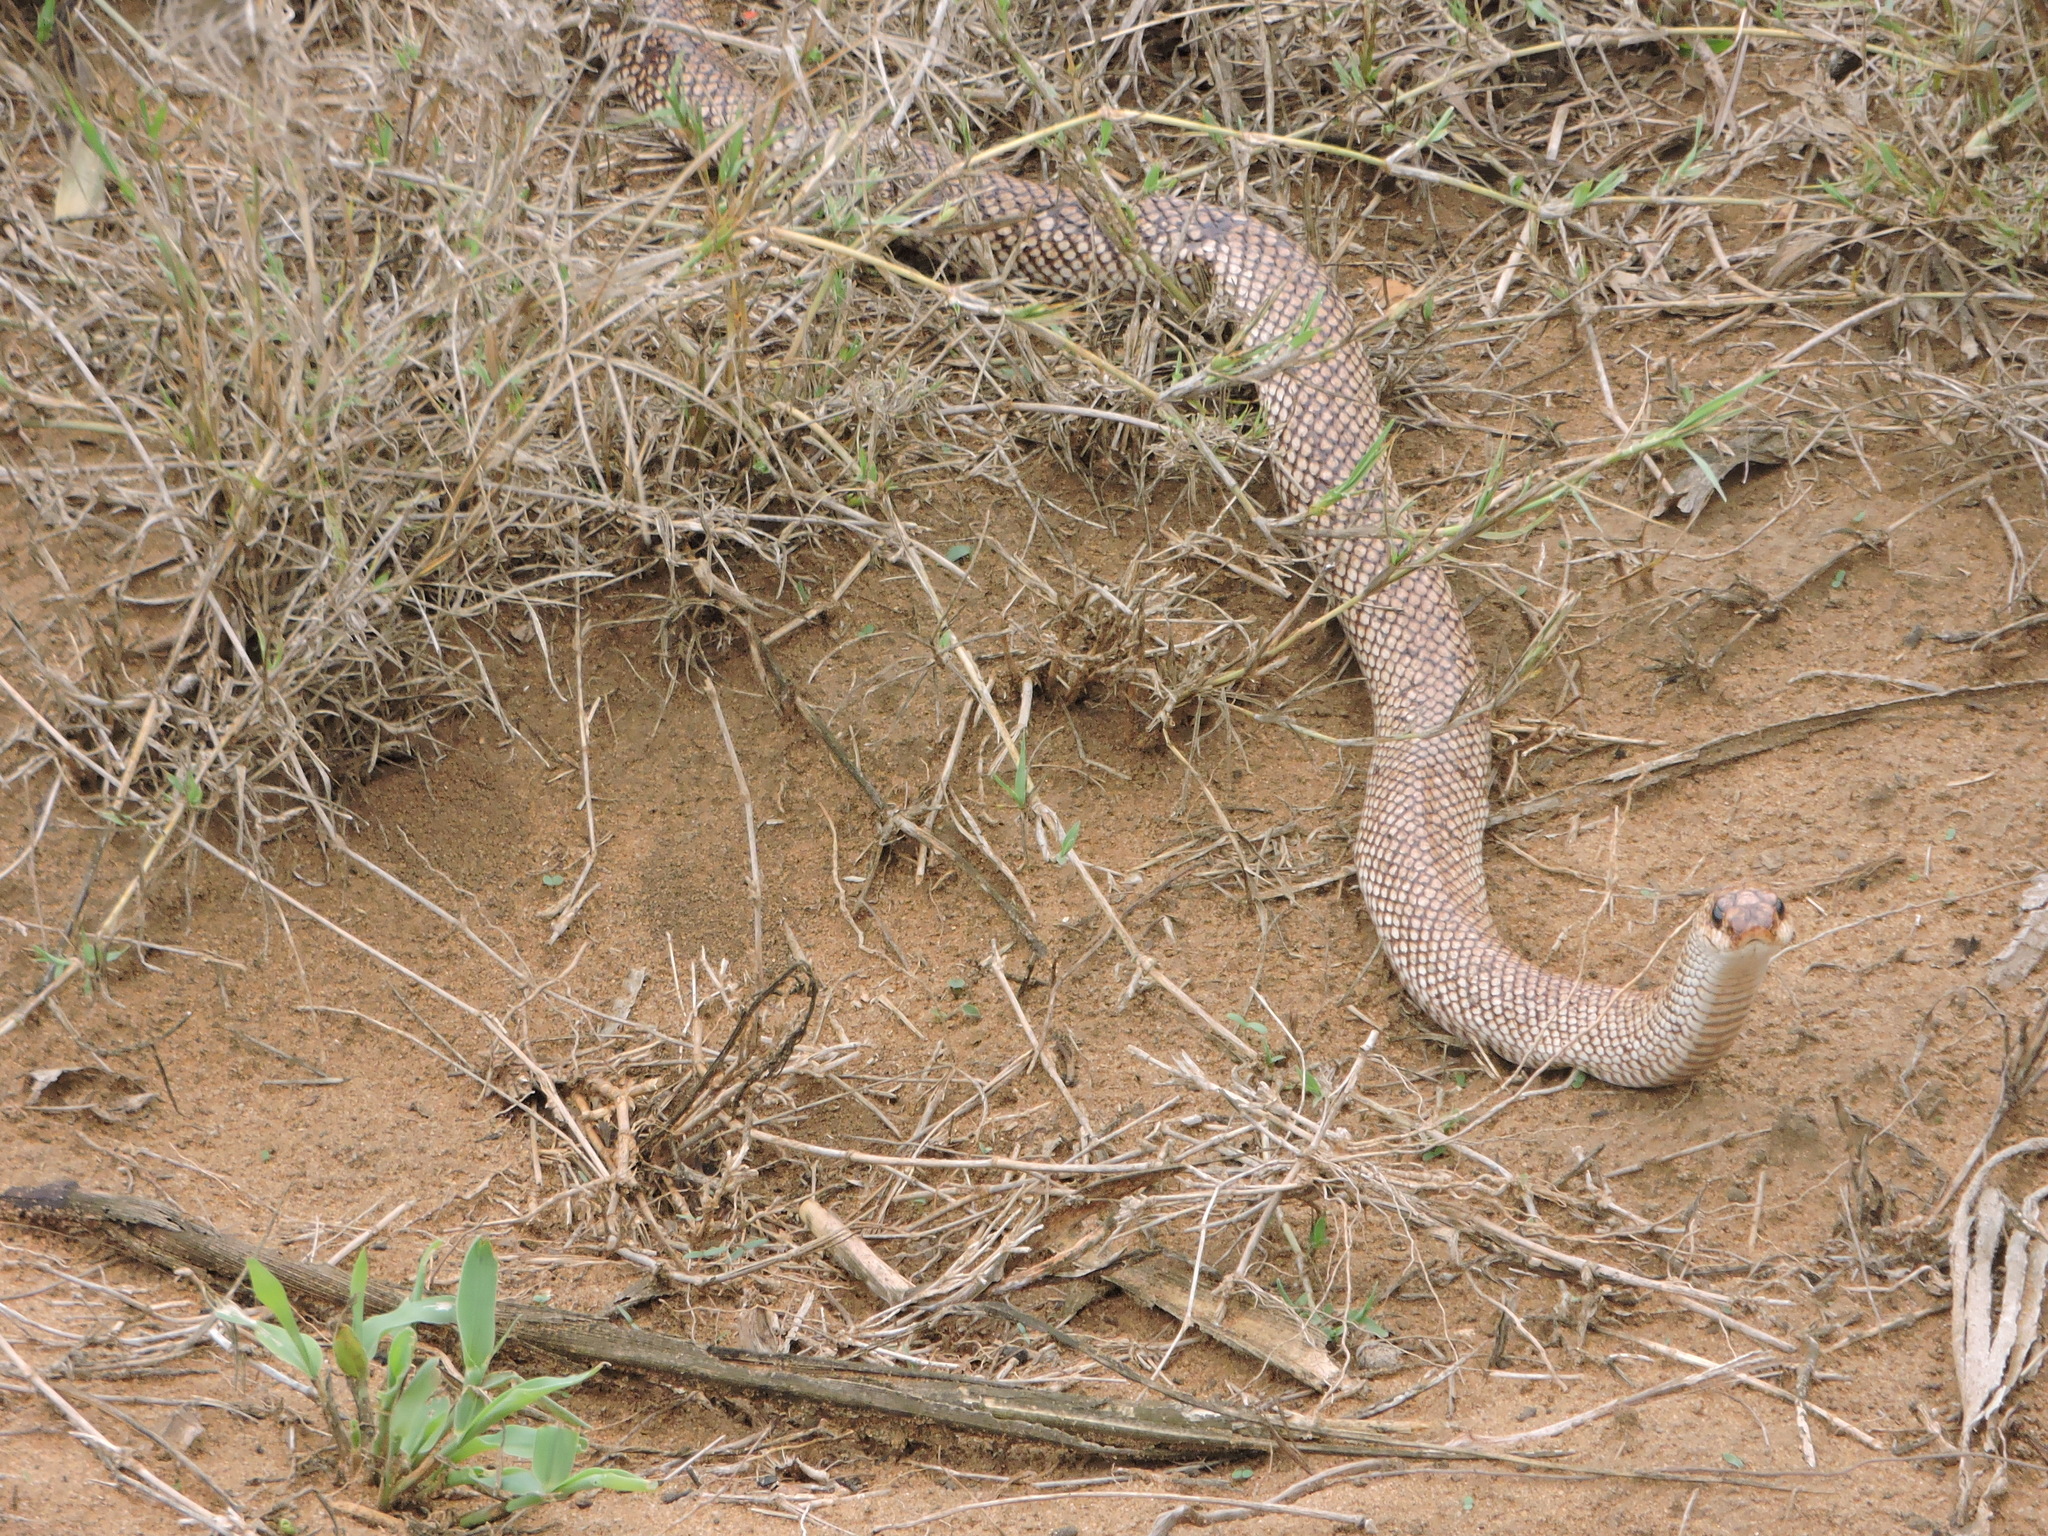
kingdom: Animalia
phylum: Chordata
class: Squamata
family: Pseudoxyrhophiidae
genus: Leioheterodon
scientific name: Leioheterodon geayi
